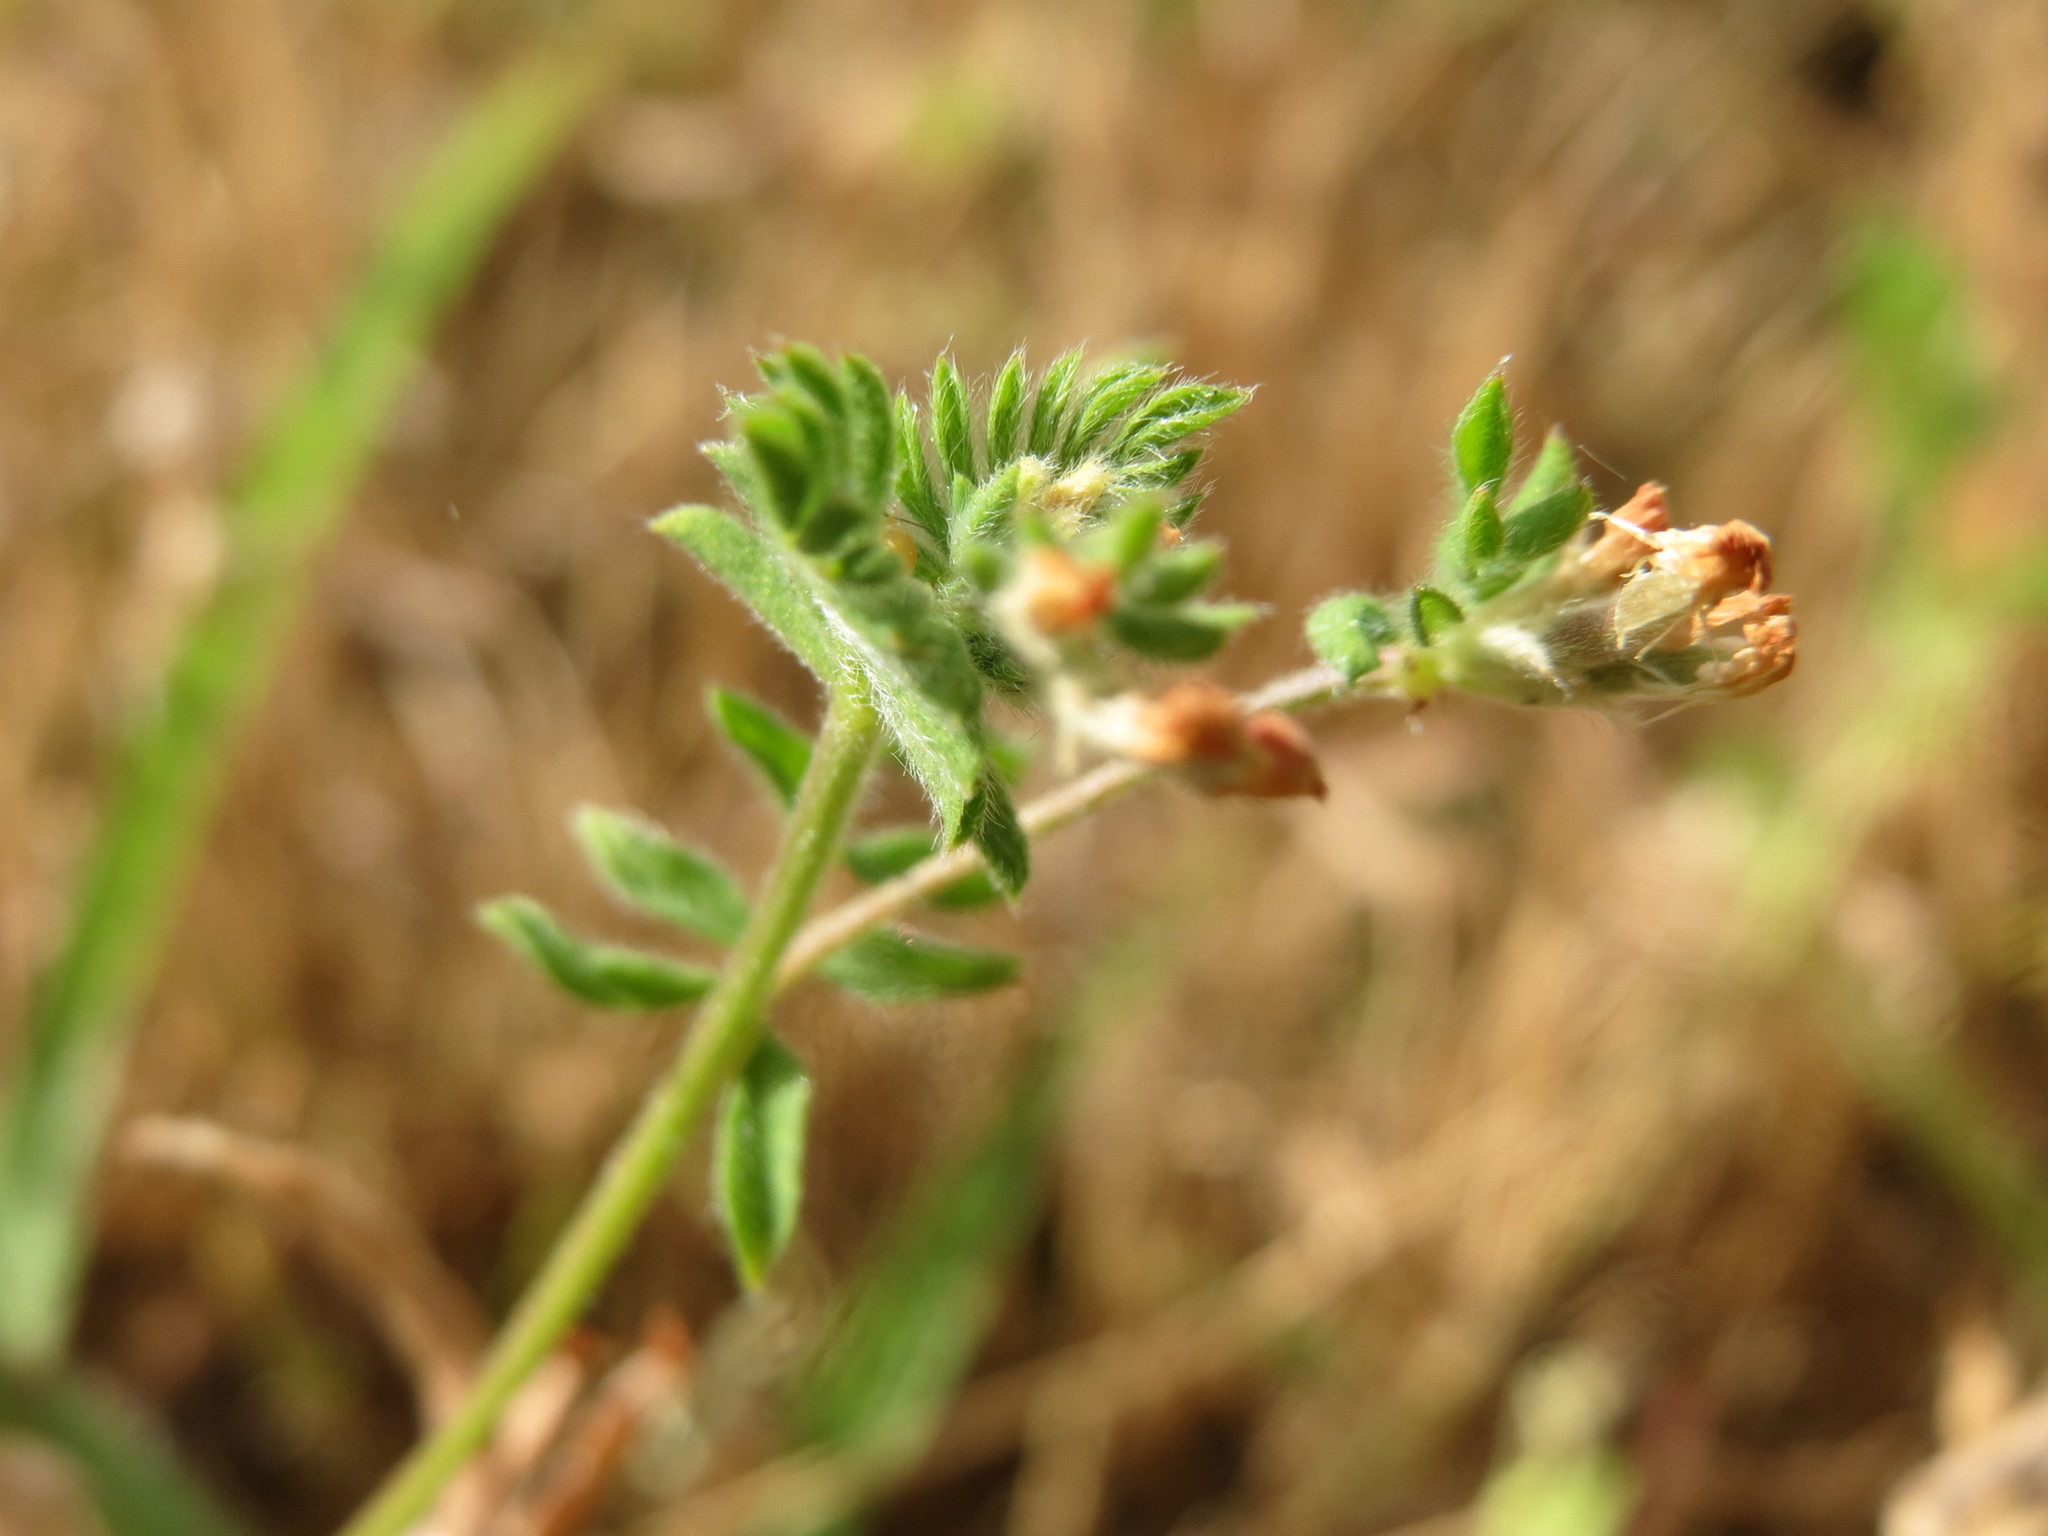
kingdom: Plantae
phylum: Tracheophyta
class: Magnoliopsida
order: Fabales
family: Fabaceae
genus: Ornithopus
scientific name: Ornithopus perpusillus
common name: Bird's-foot
